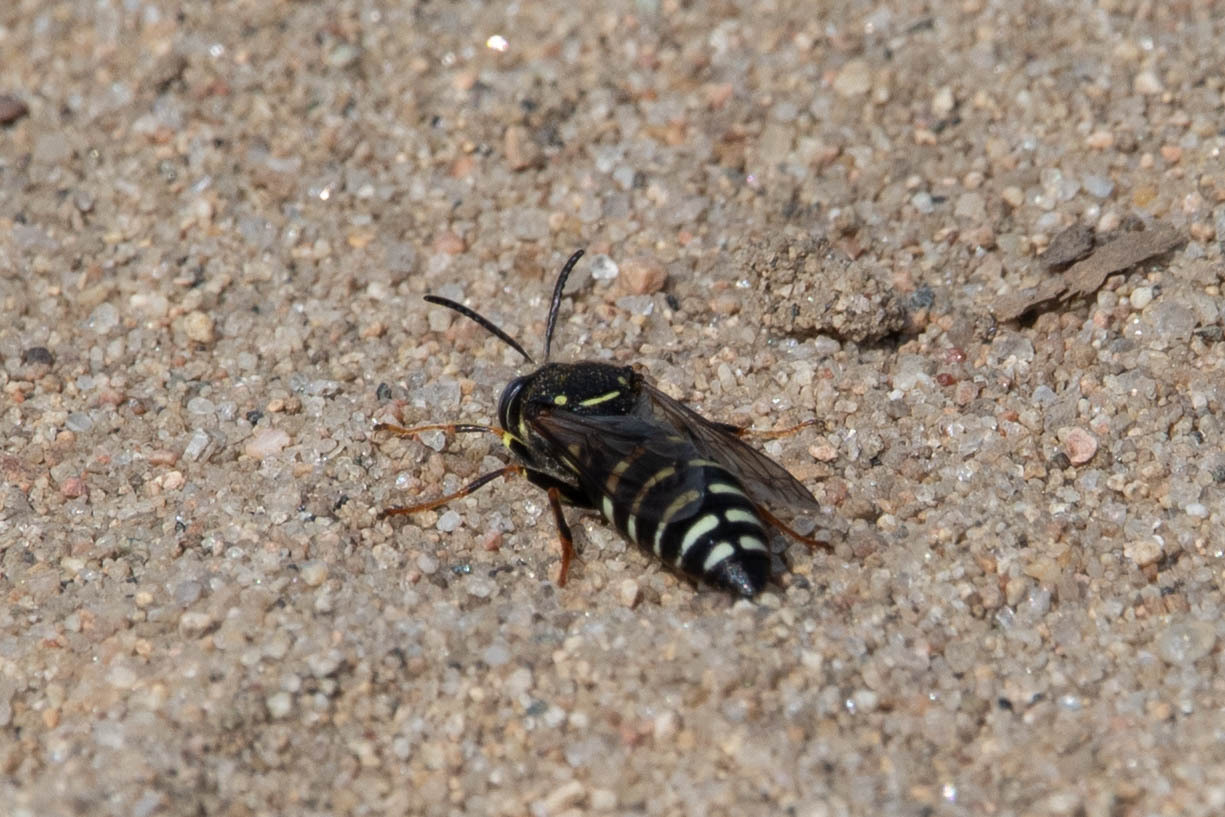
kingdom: Animalia
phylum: Arthropoda
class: Insecta
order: Hymenoptera
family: Crabronidae
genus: Bicyrtes
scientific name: Bicyrtes ventralis
